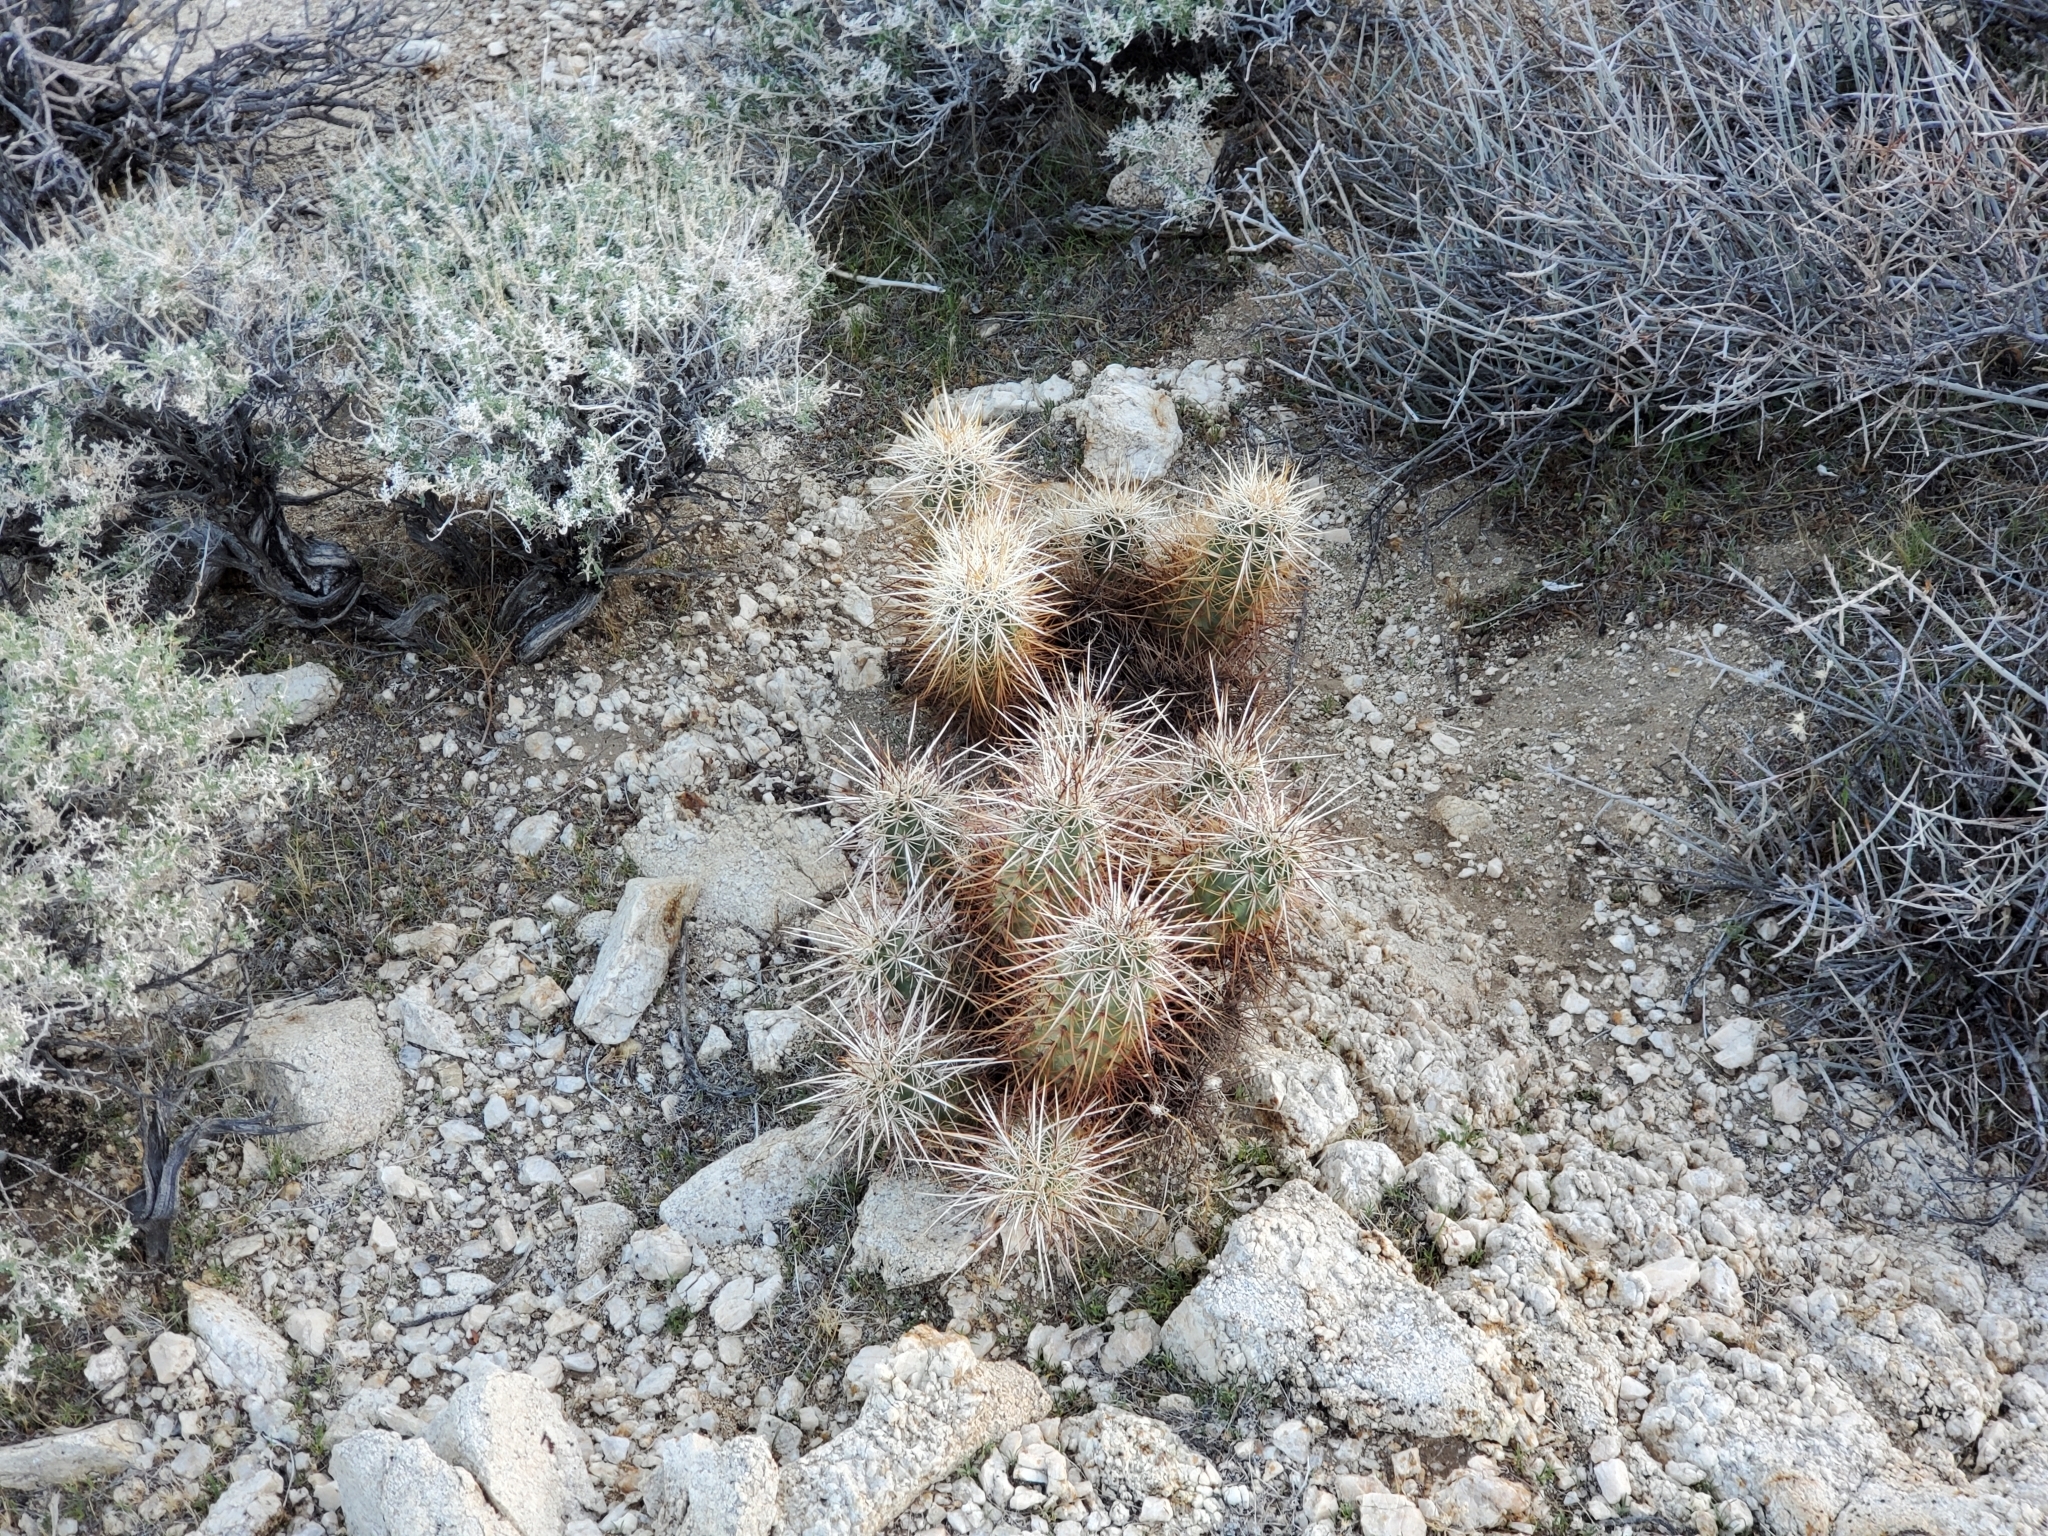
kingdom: Plantae
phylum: Tracheophyta
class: Magnoliopsida
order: Caryophyllales
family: Cactaceae
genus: Echinocereus
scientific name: Echinocereus engelmannii
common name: Engelmann's hedgehog cactus
